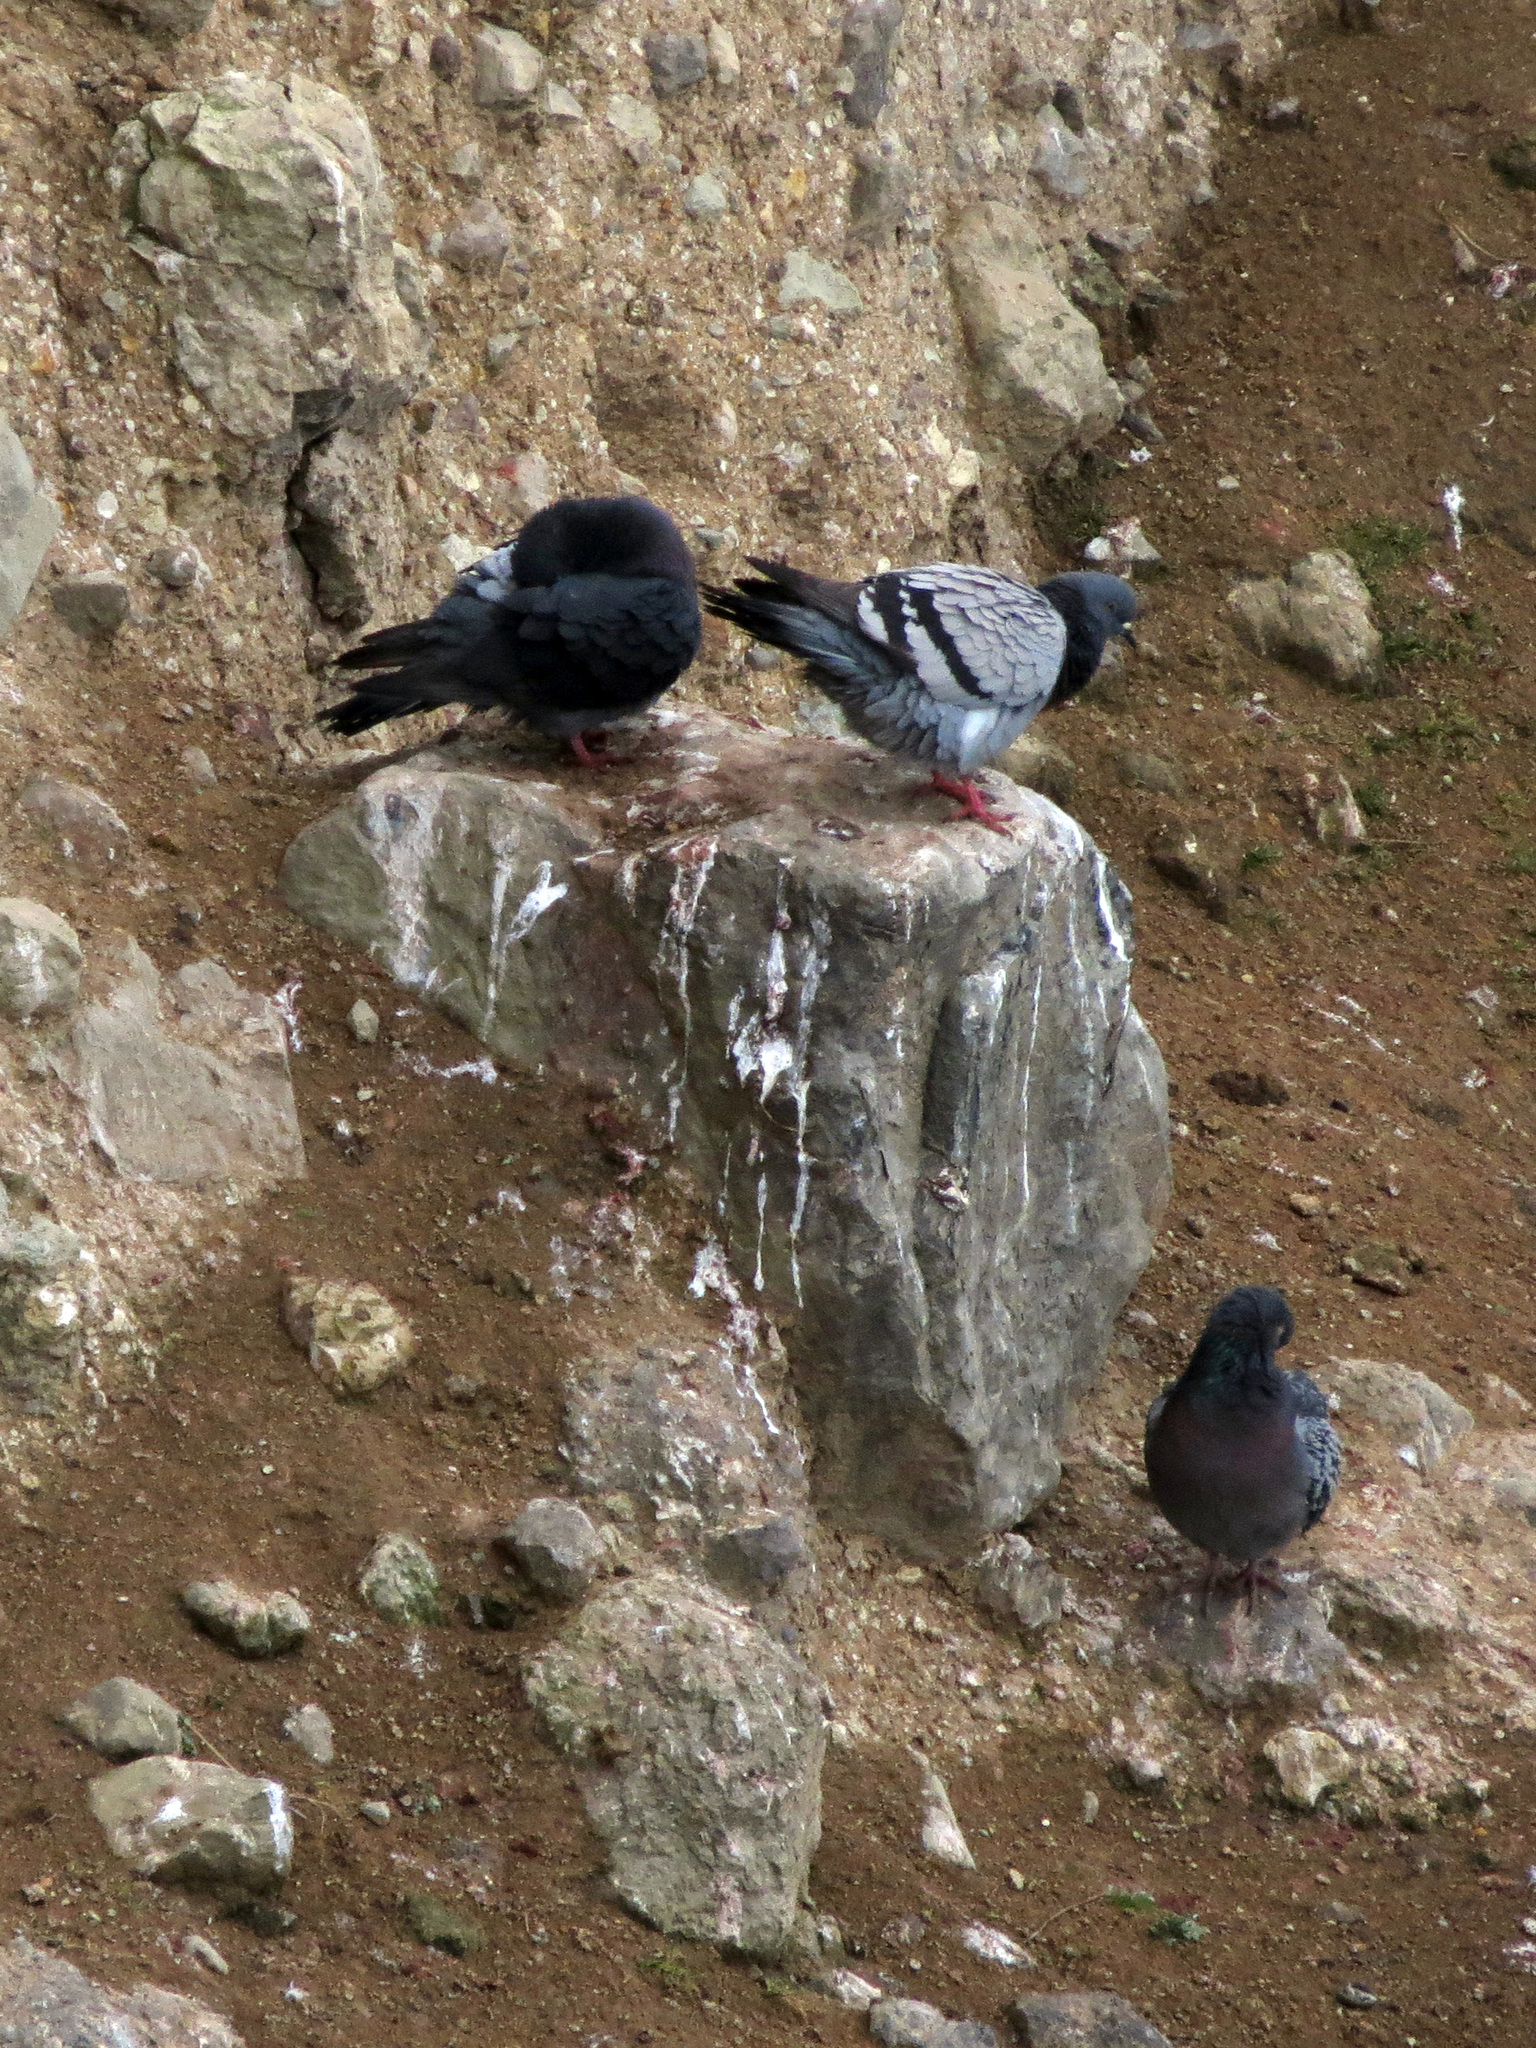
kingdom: Animalia
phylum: Chordata
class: Aves
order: Columbiformes
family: Columbidae
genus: Columba
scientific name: Columba livia
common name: Rock pigeon
